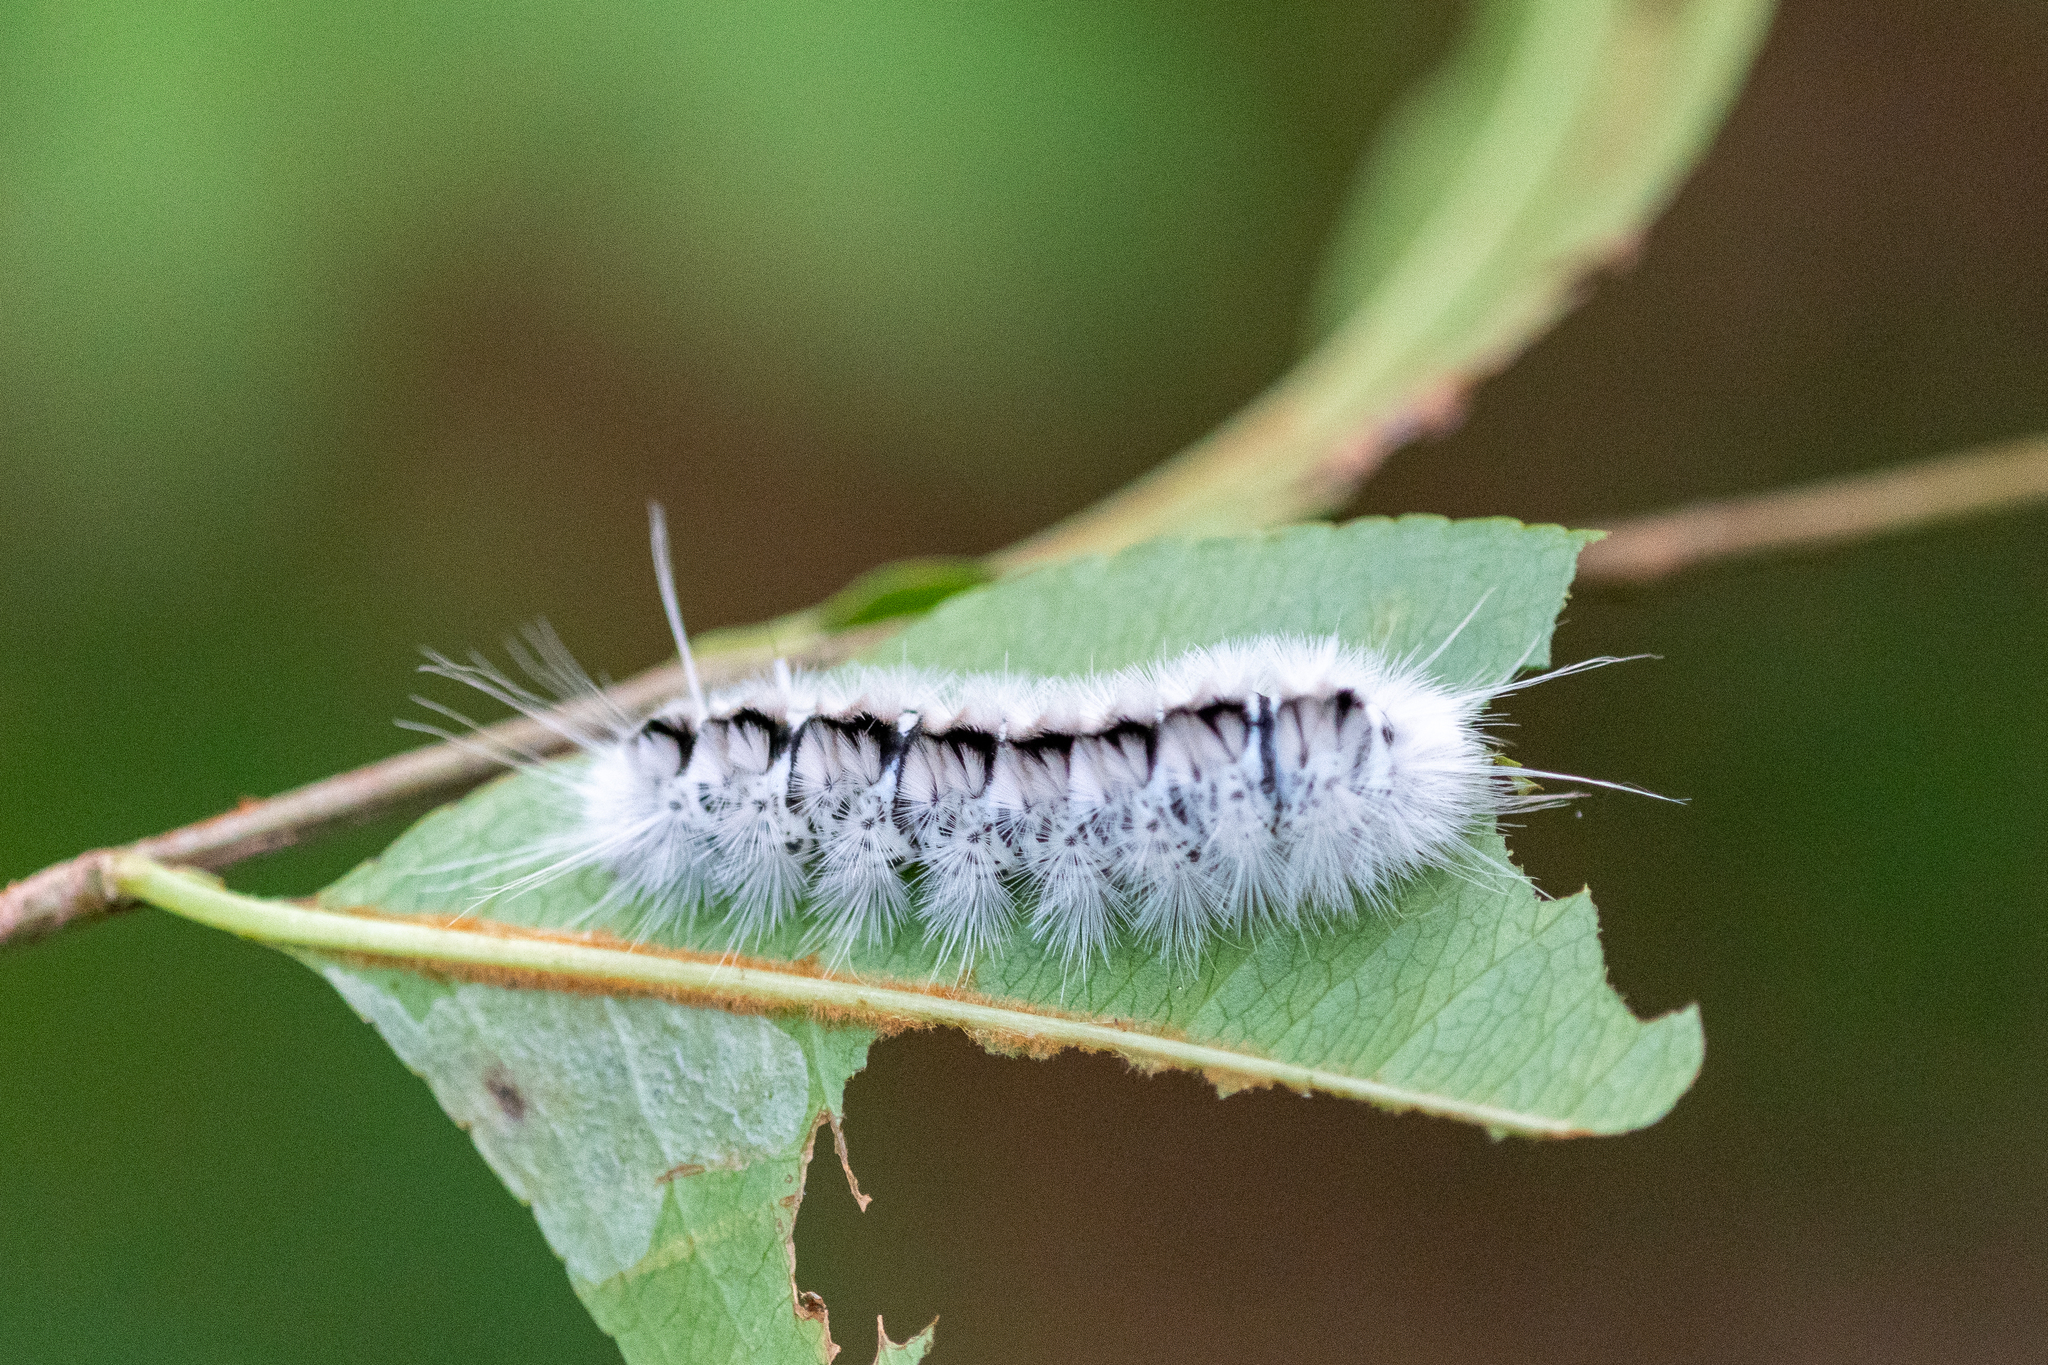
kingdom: Animalia
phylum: Arthropoda
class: Insecta
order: Lepidoptera
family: Erebidae
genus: Lophocampa
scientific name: Lophocampa caryae
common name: Hickory tussock moth
